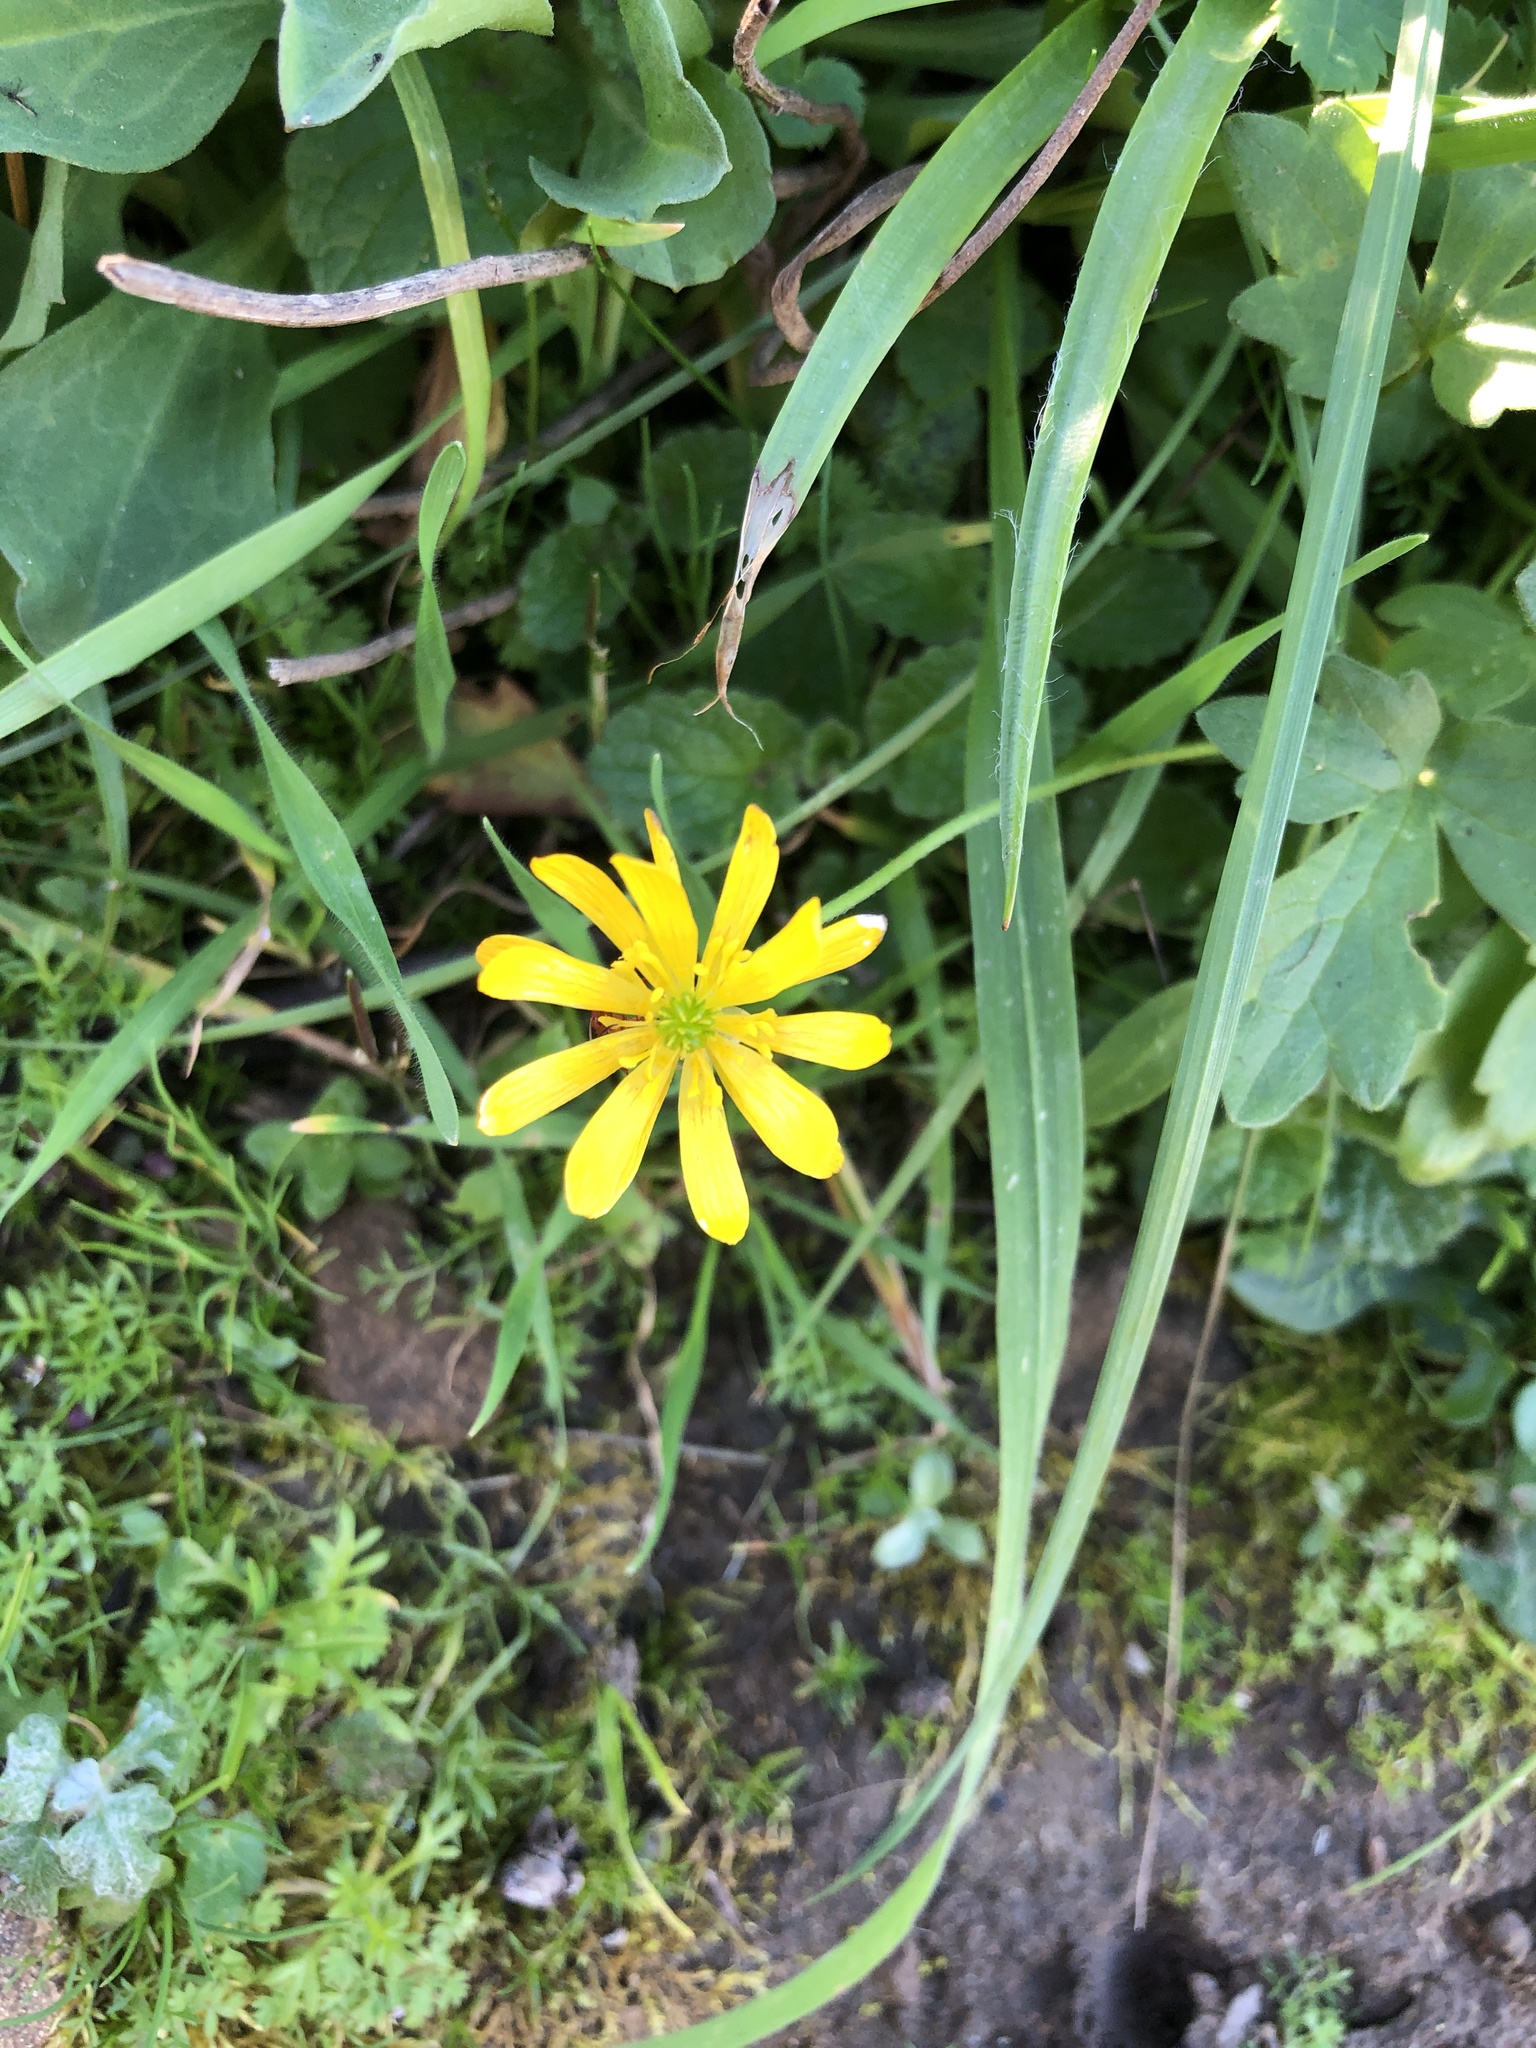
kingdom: Plantae
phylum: Tracheophyta
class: Magnoliopsida
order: Ranunculales
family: Ranunculaceae
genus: Ranunculus
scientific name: Ranunculus californicus
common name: California buttercup
